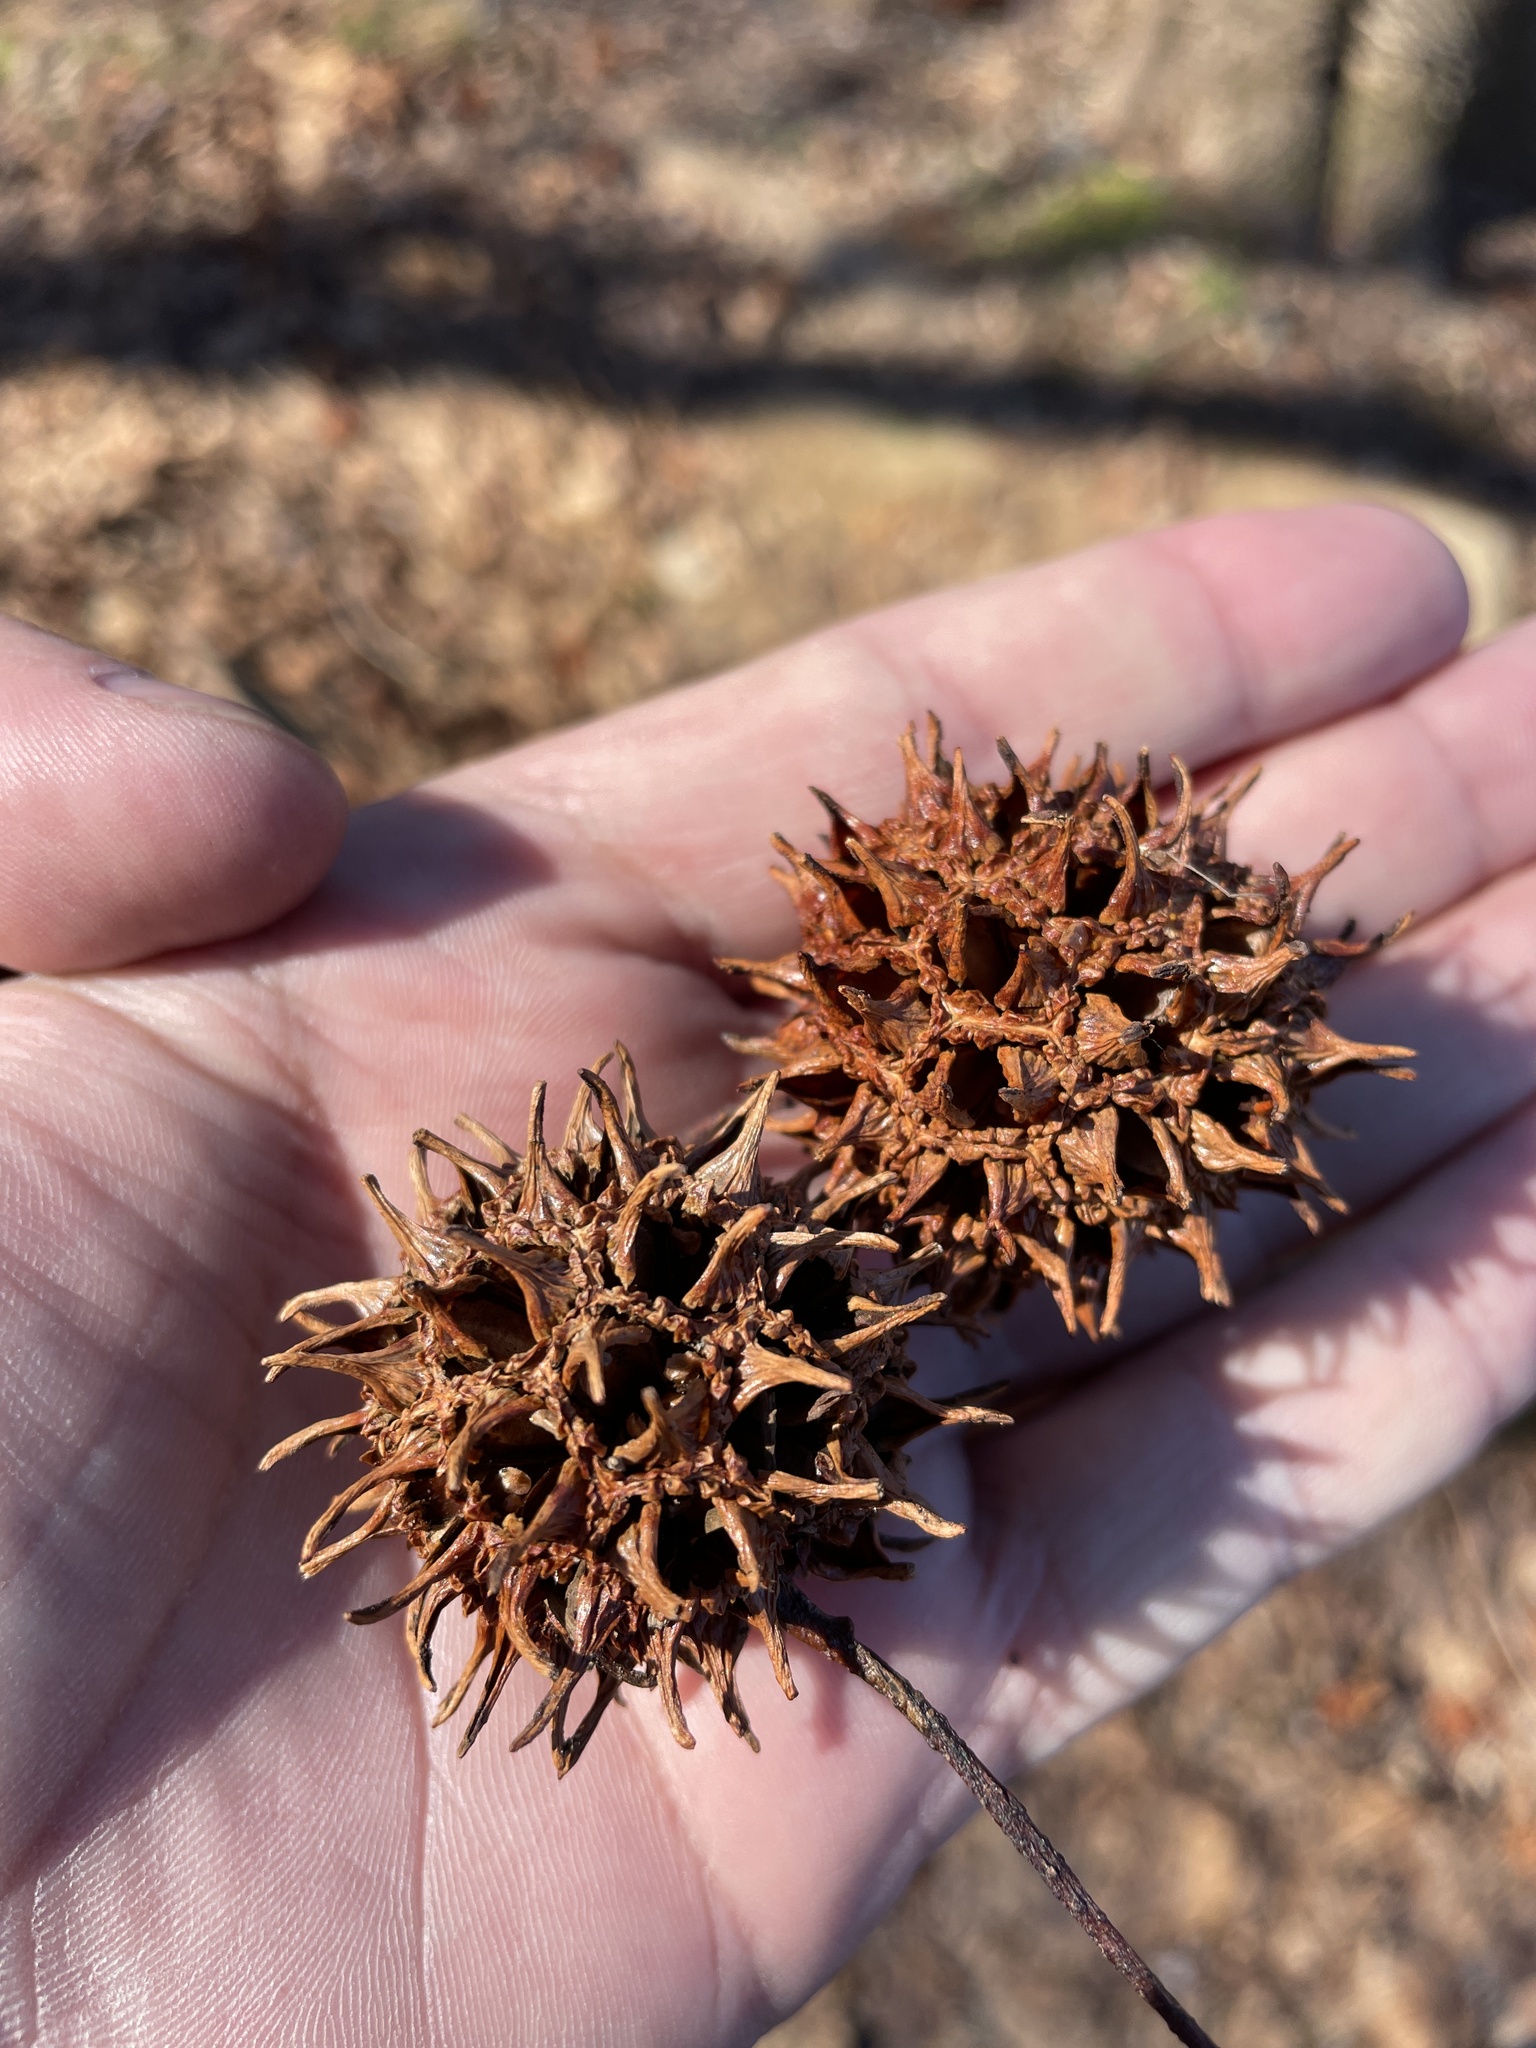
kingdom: Plantae
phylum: Tracheophyta
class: Magnoliopsida
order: Saxifragales
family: Altingiaceae
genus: Liquidambar
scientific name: Liquidambar styraciflua
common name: Sweet gum
